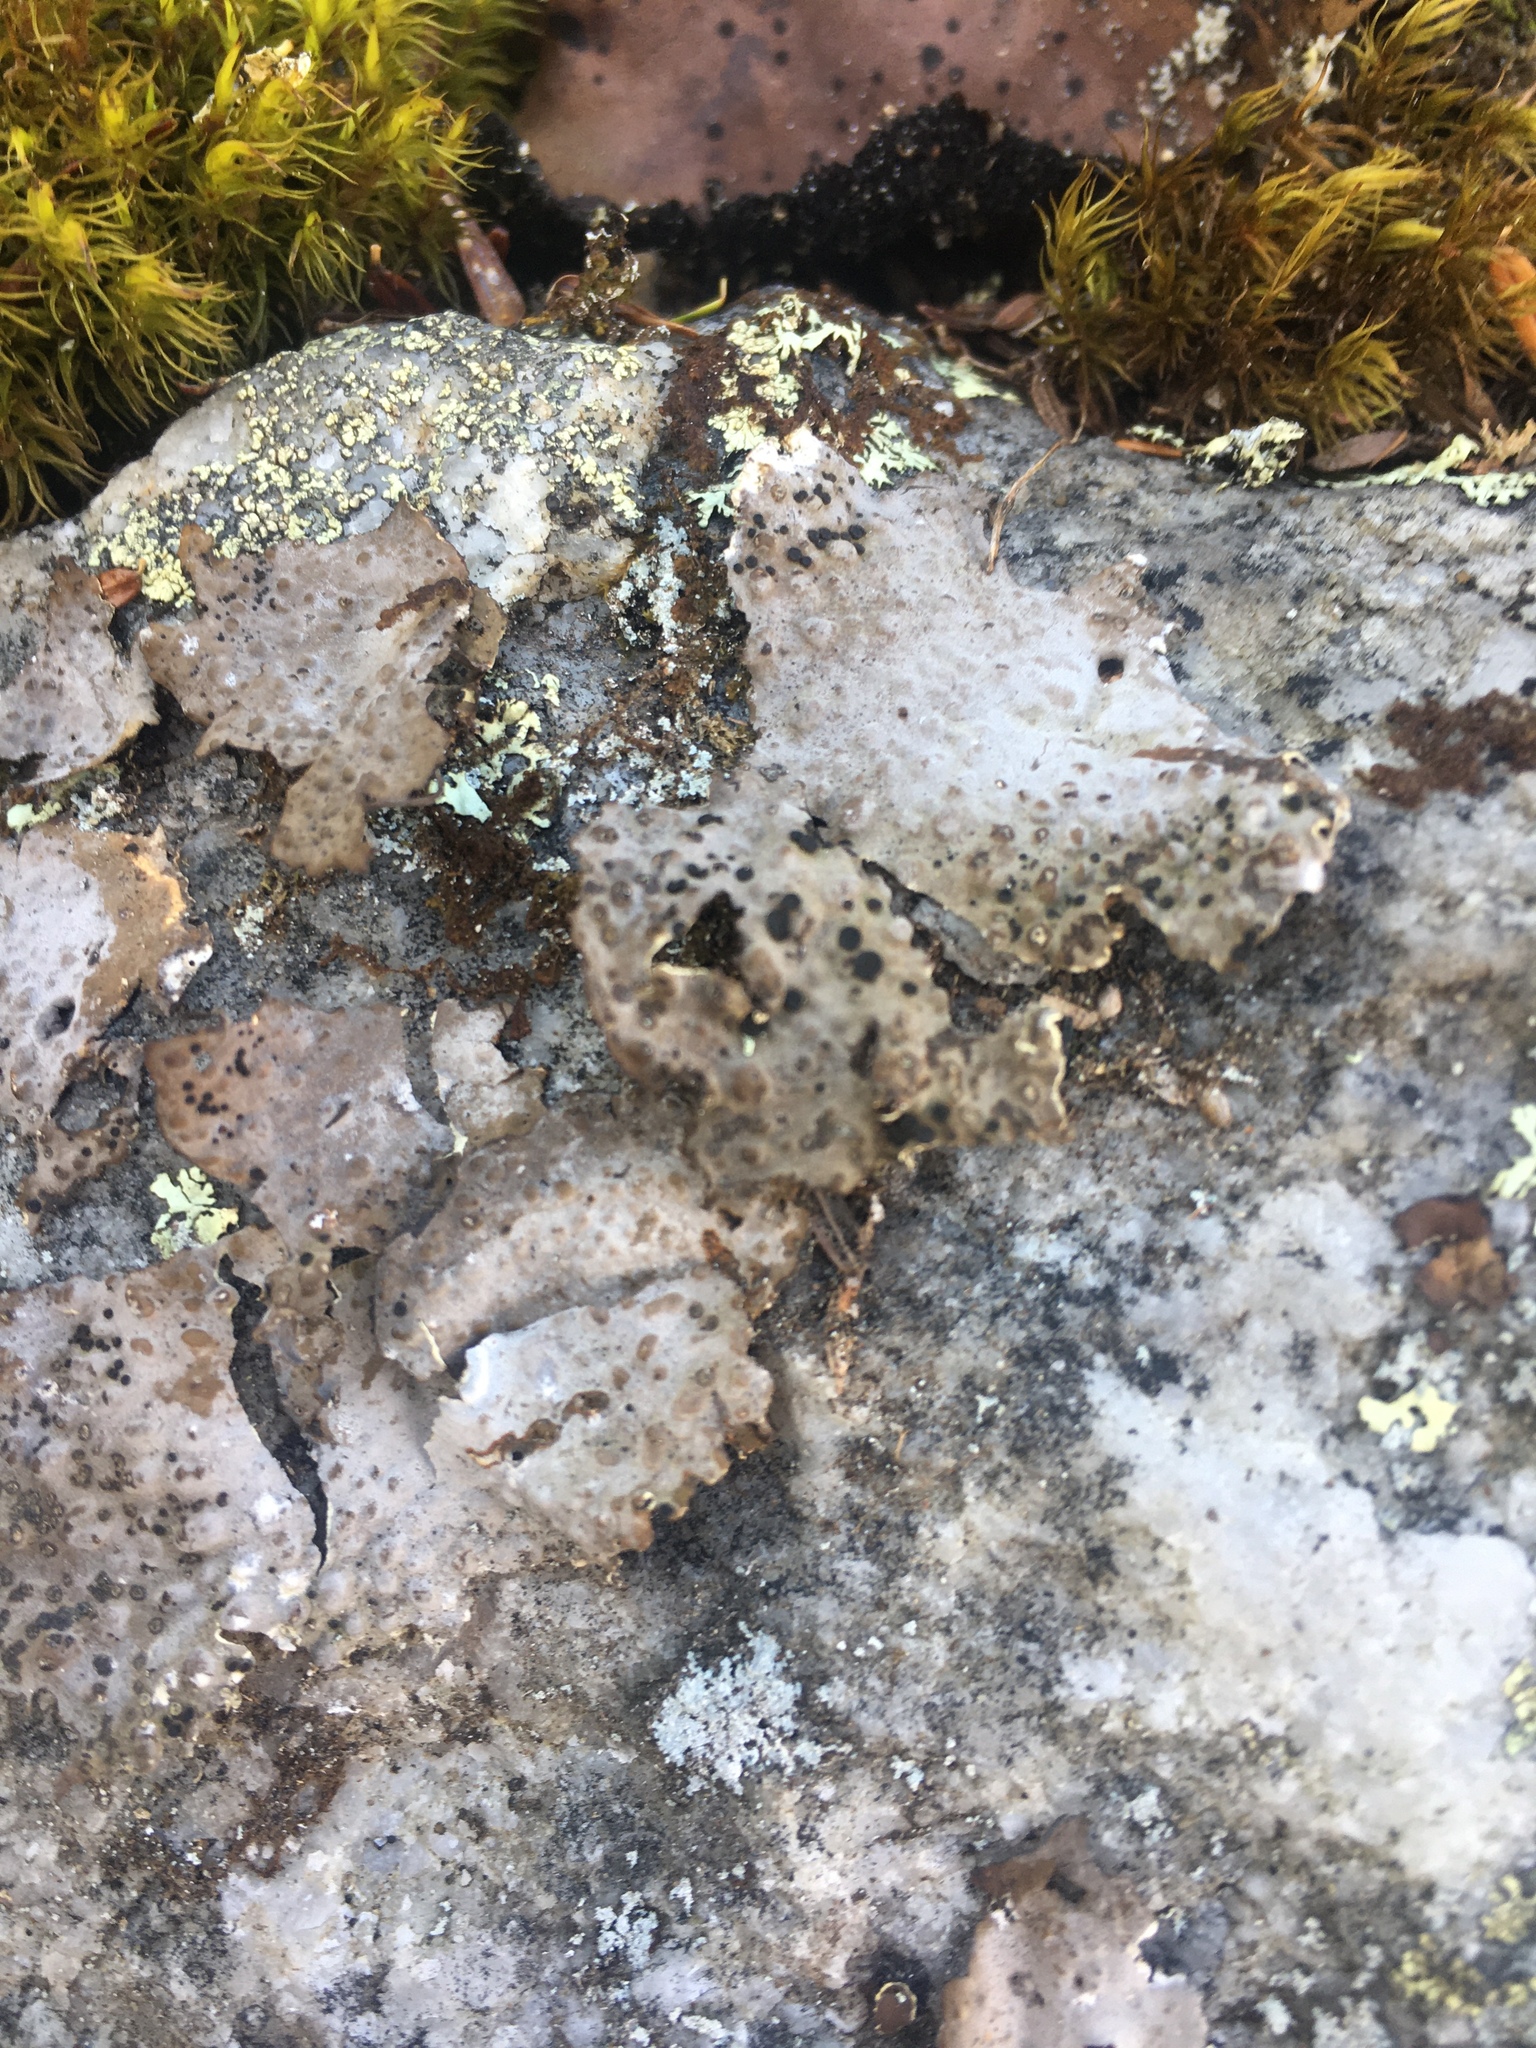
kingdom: Fungi
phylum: Ascomycota
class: Lecanoromycetes
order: Umbilicariales
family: Umbilicariaceae
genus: Lasallia
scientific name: Lasallia papulosa
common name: Common toadskin lichen
